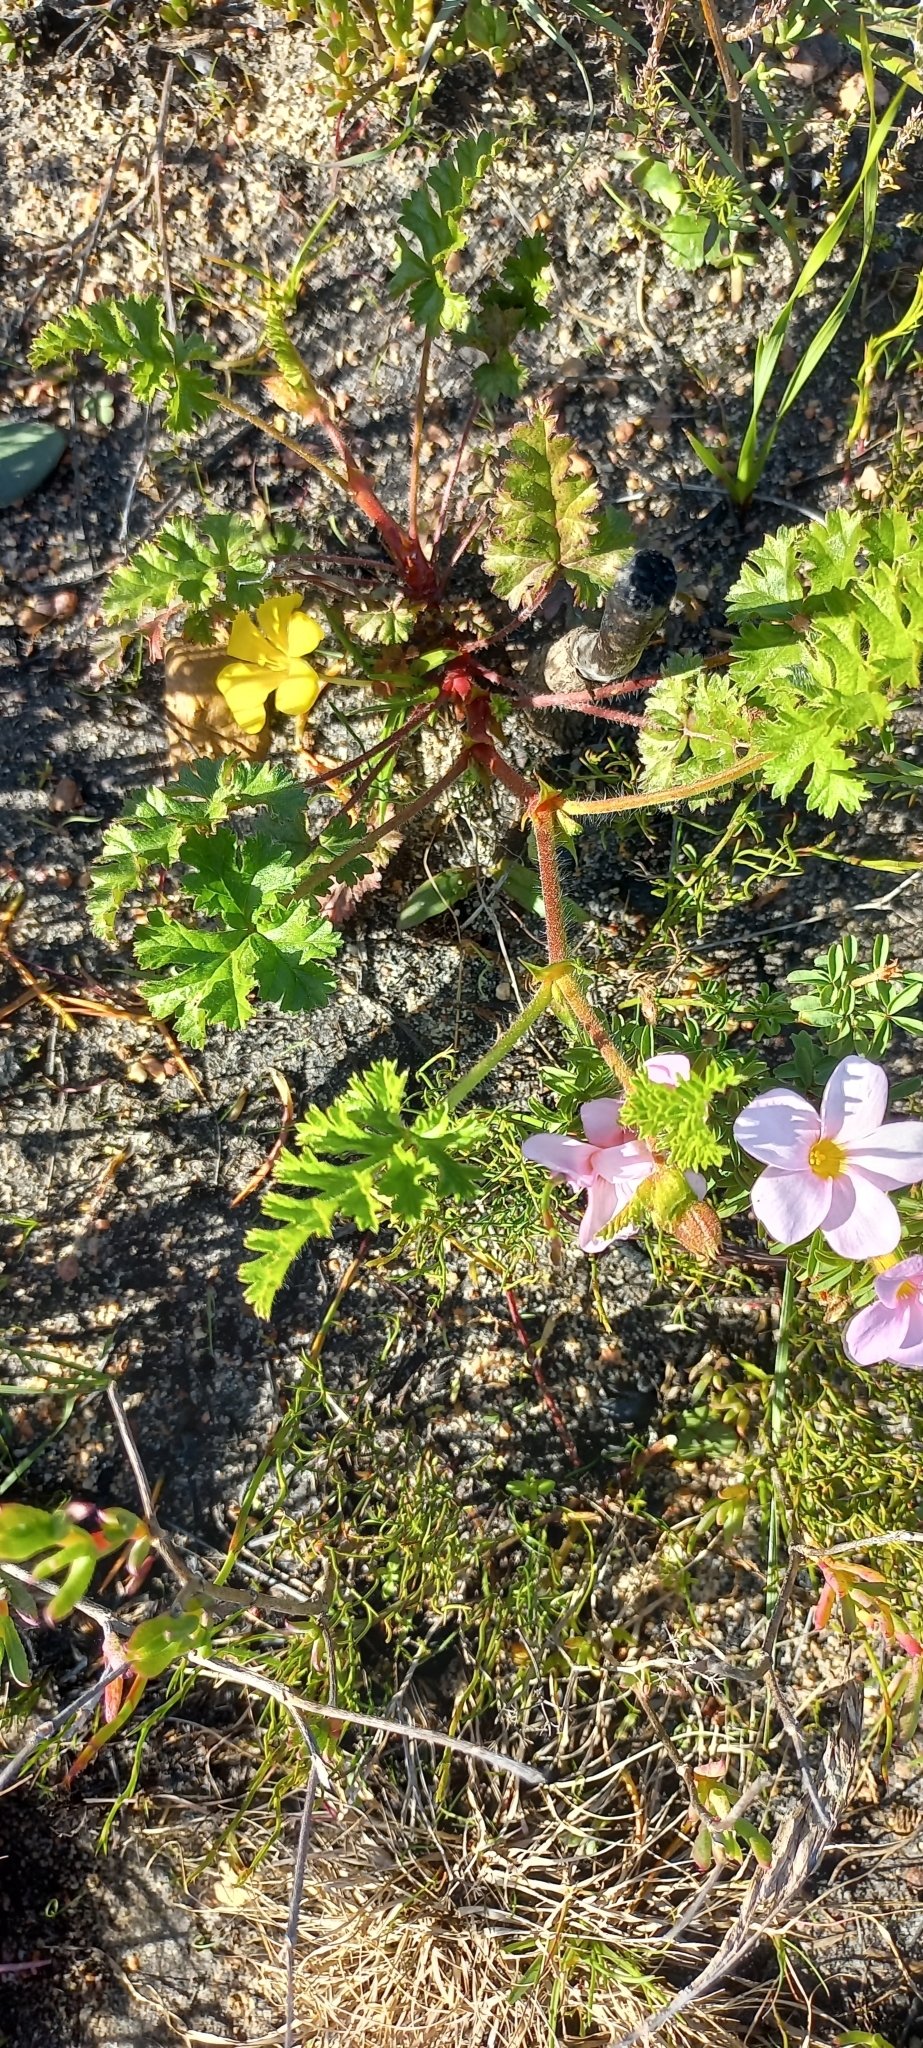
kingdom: Plantae
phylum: Tracheophyta
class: Magnoliopsida
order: Geraniales
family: Geraniaceae
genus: Pelargonium
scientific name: Pelargonium candicans
